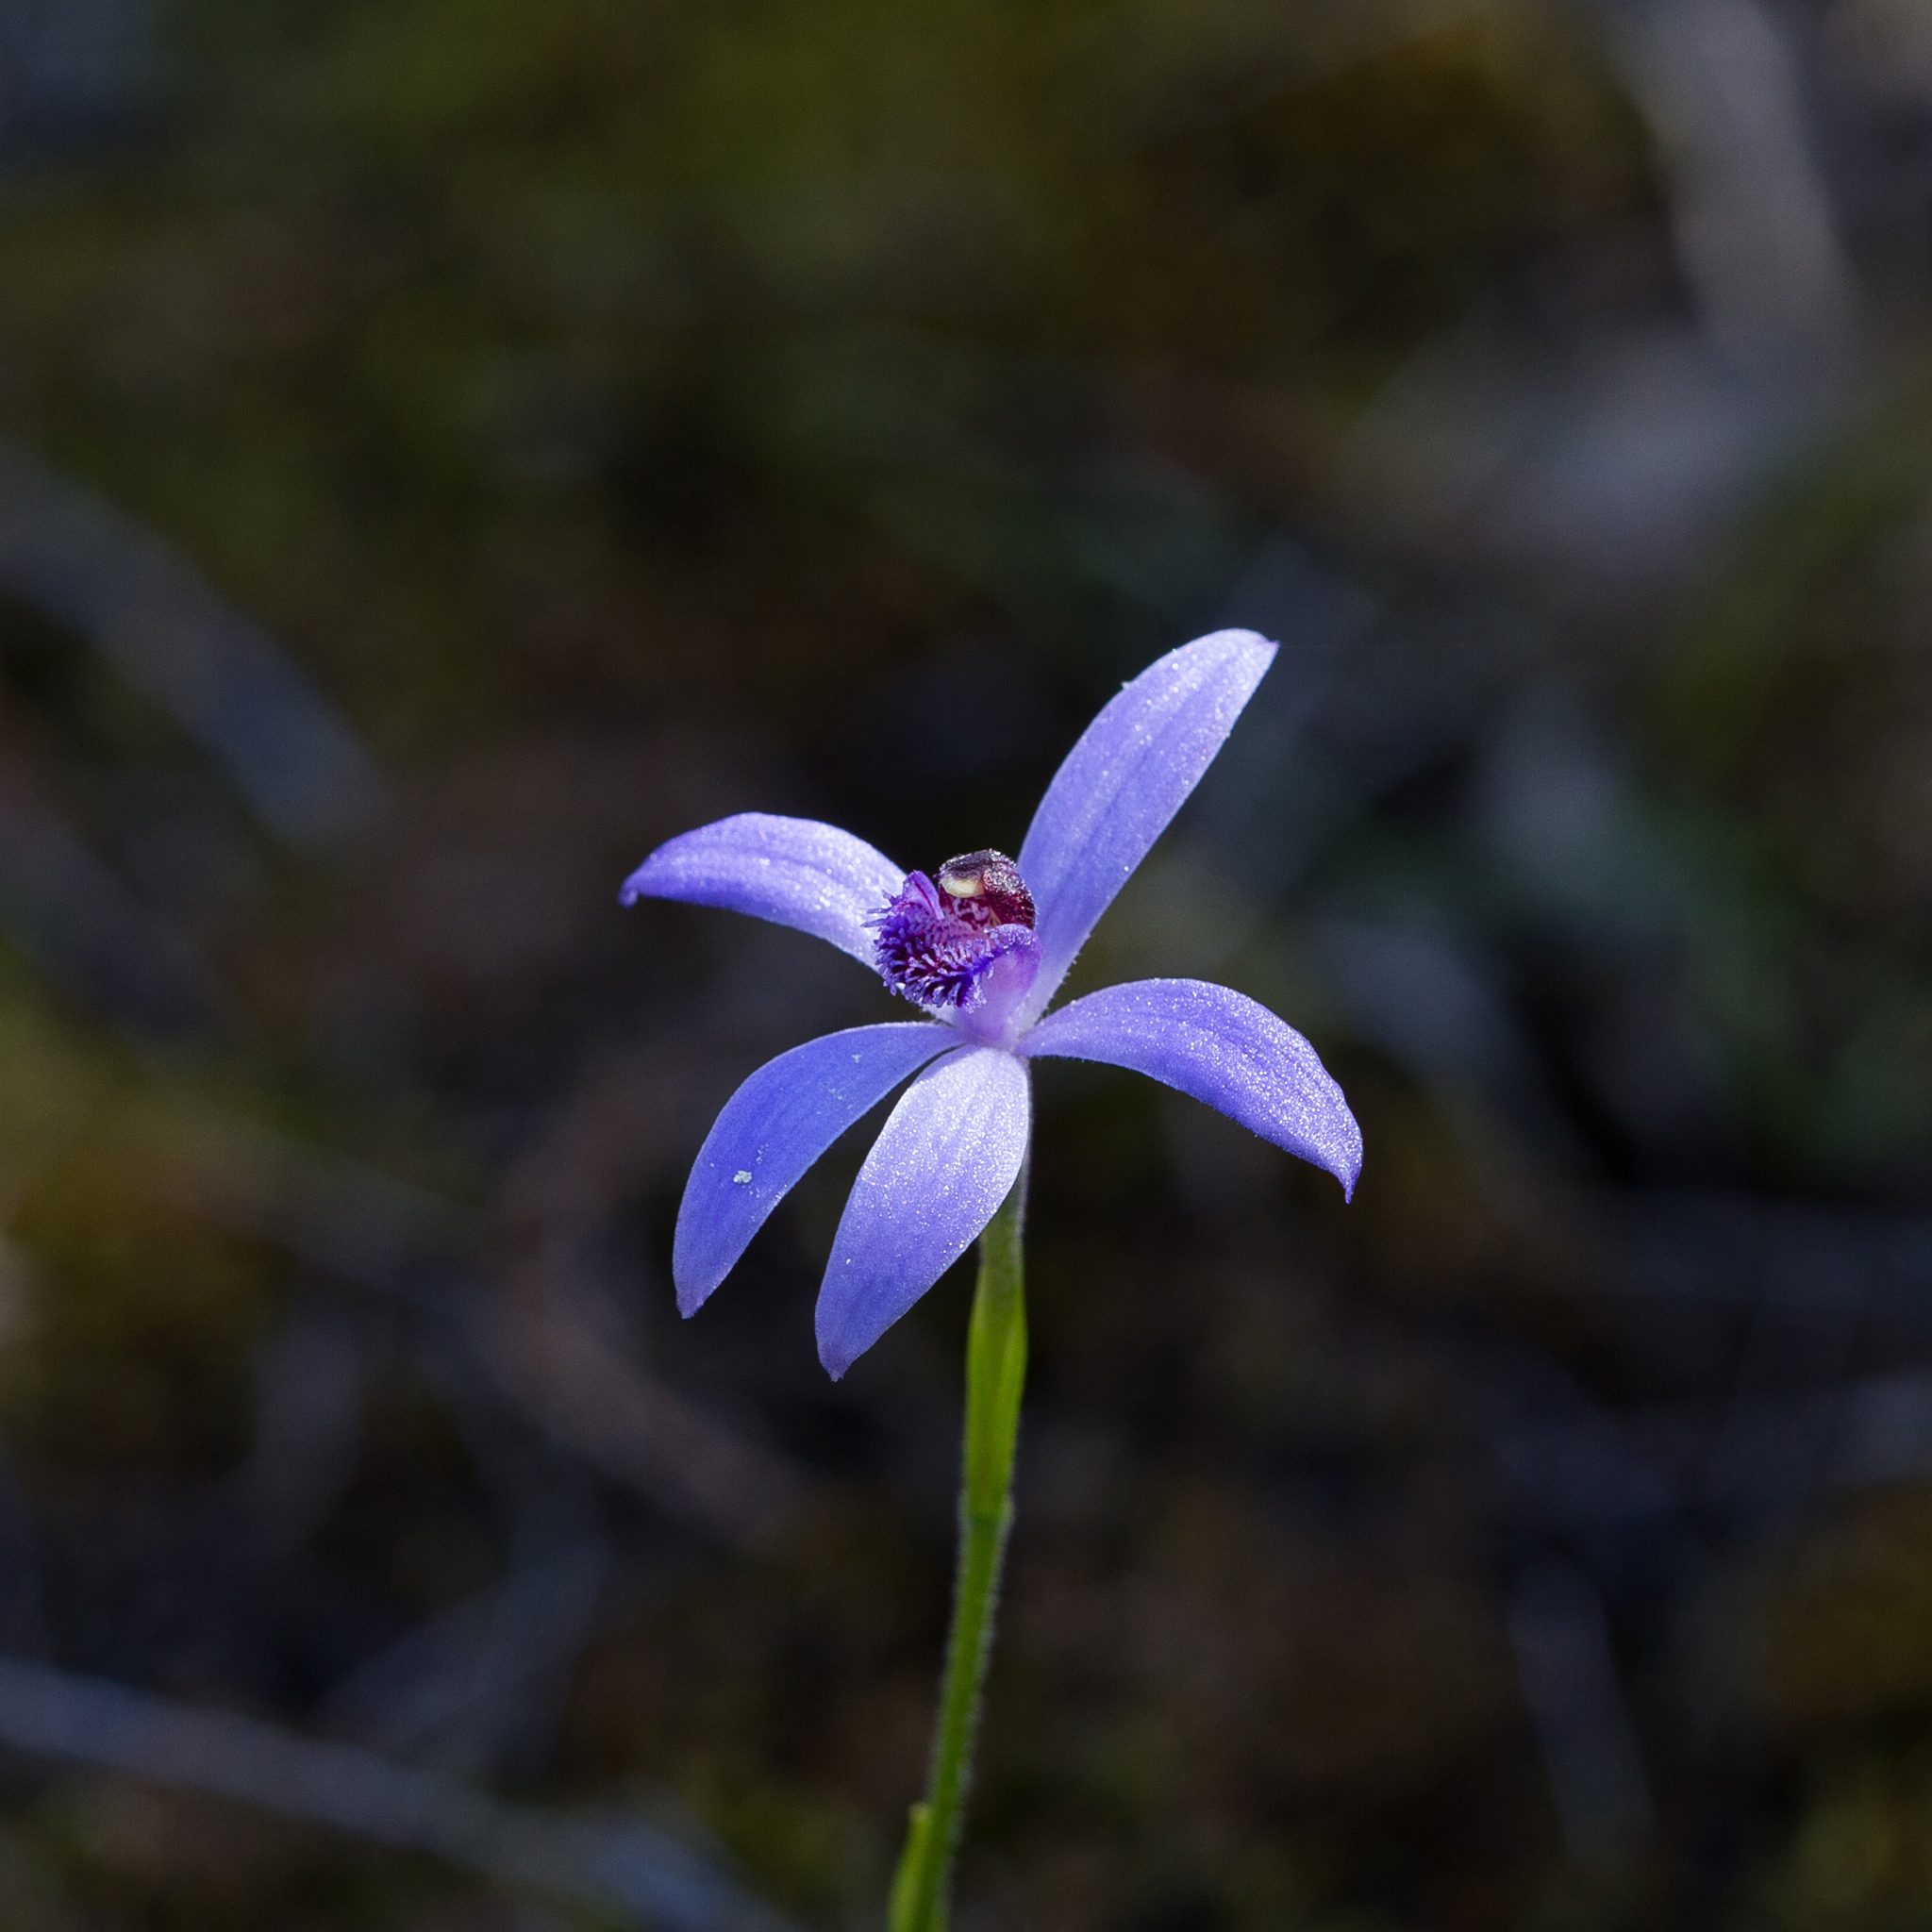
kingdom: Plantae
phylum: Tracheophyta
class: Liliopsida
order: Asparagales
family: Orchidaceae
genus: Pheladenia
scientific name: Pheladenia deformis
